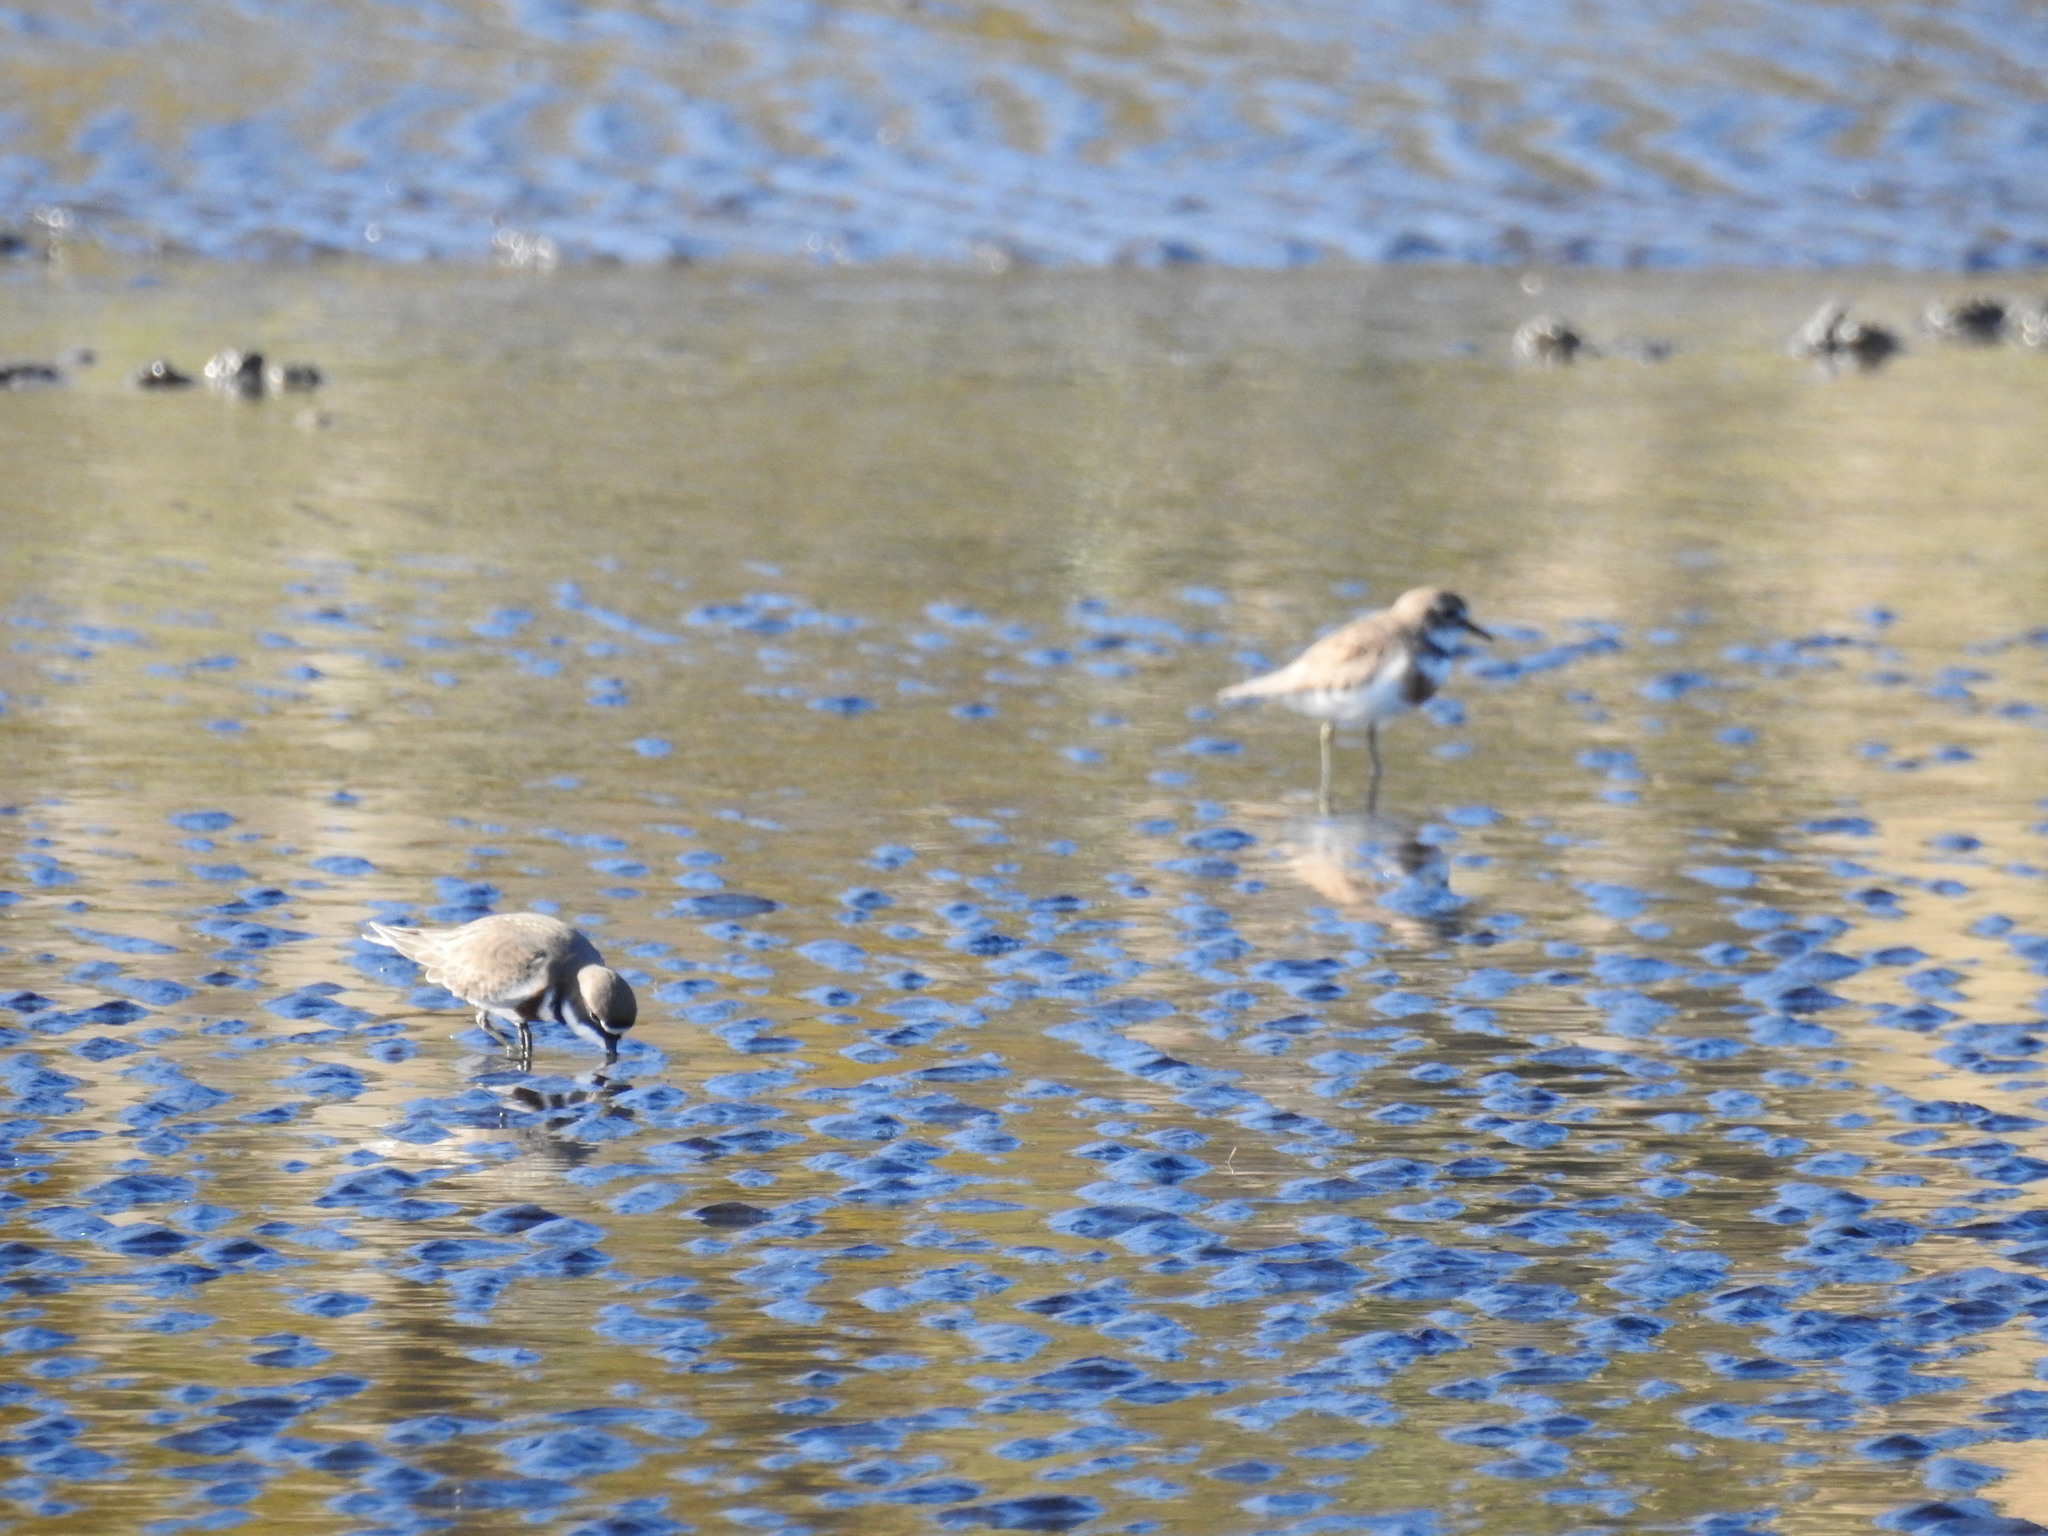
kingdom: Animalia
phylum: Chordata
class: Aves
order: Charadriiformes
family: Charadriidae
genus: Anarhynchus
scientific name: Anarhynchus
